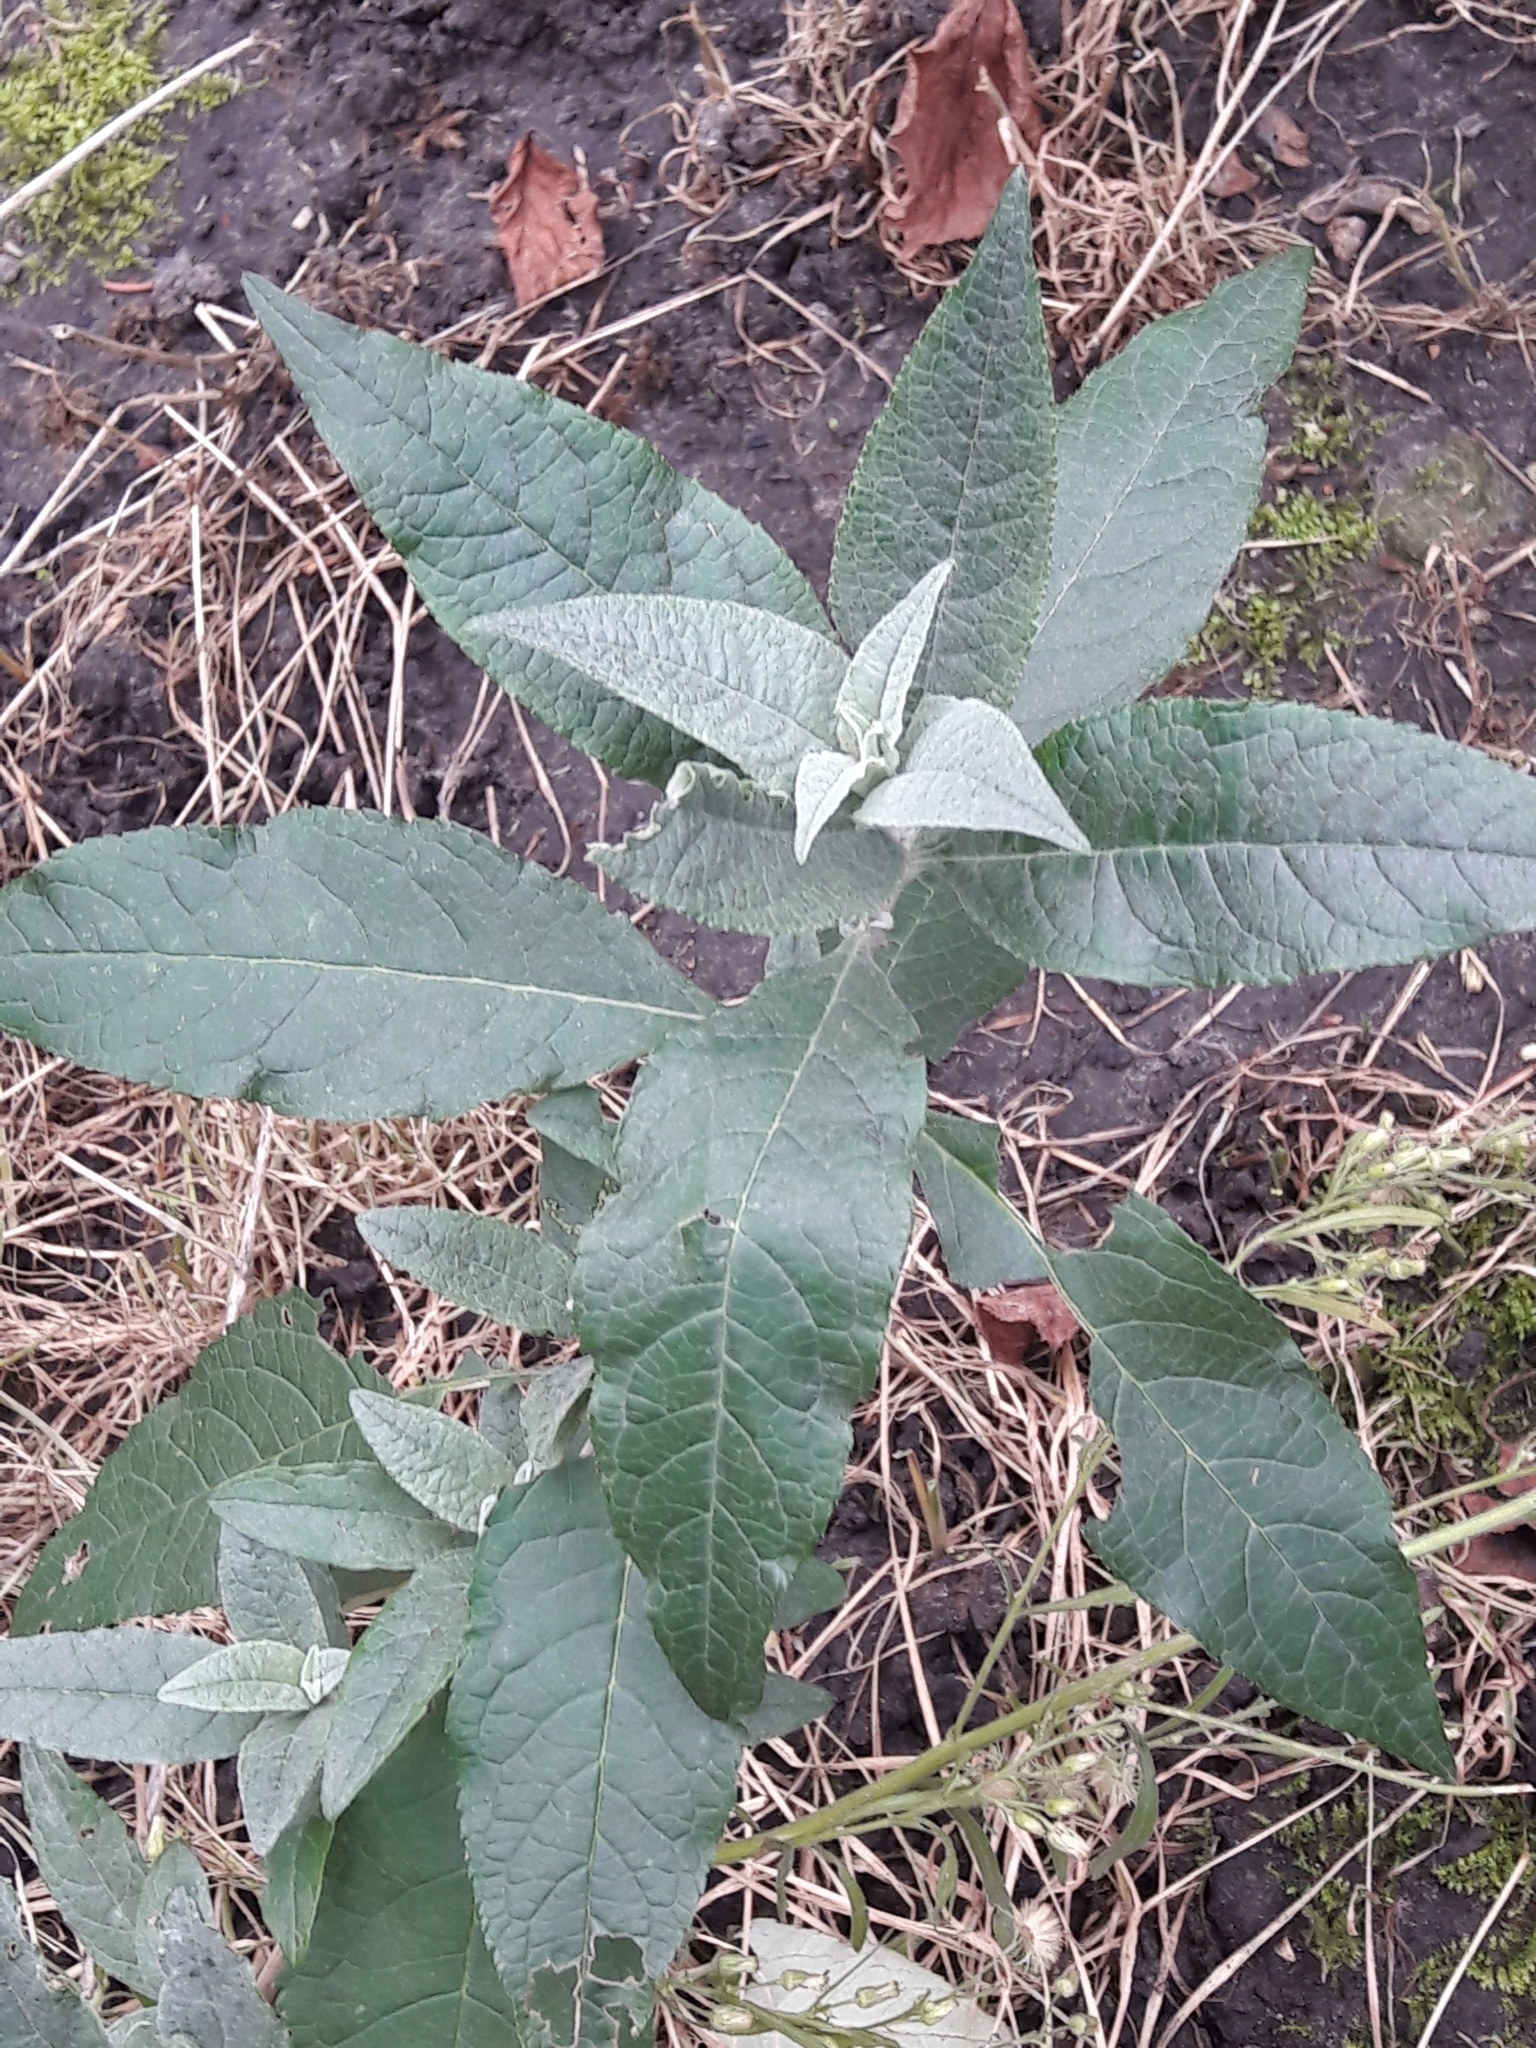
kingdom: Plantae
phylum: Tracheophyta
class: Magnoliopsida
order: Lamiales
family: Scrophulariaceae
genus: Buddleja
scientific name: Buddleja davidii
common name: Butterfly-bush
